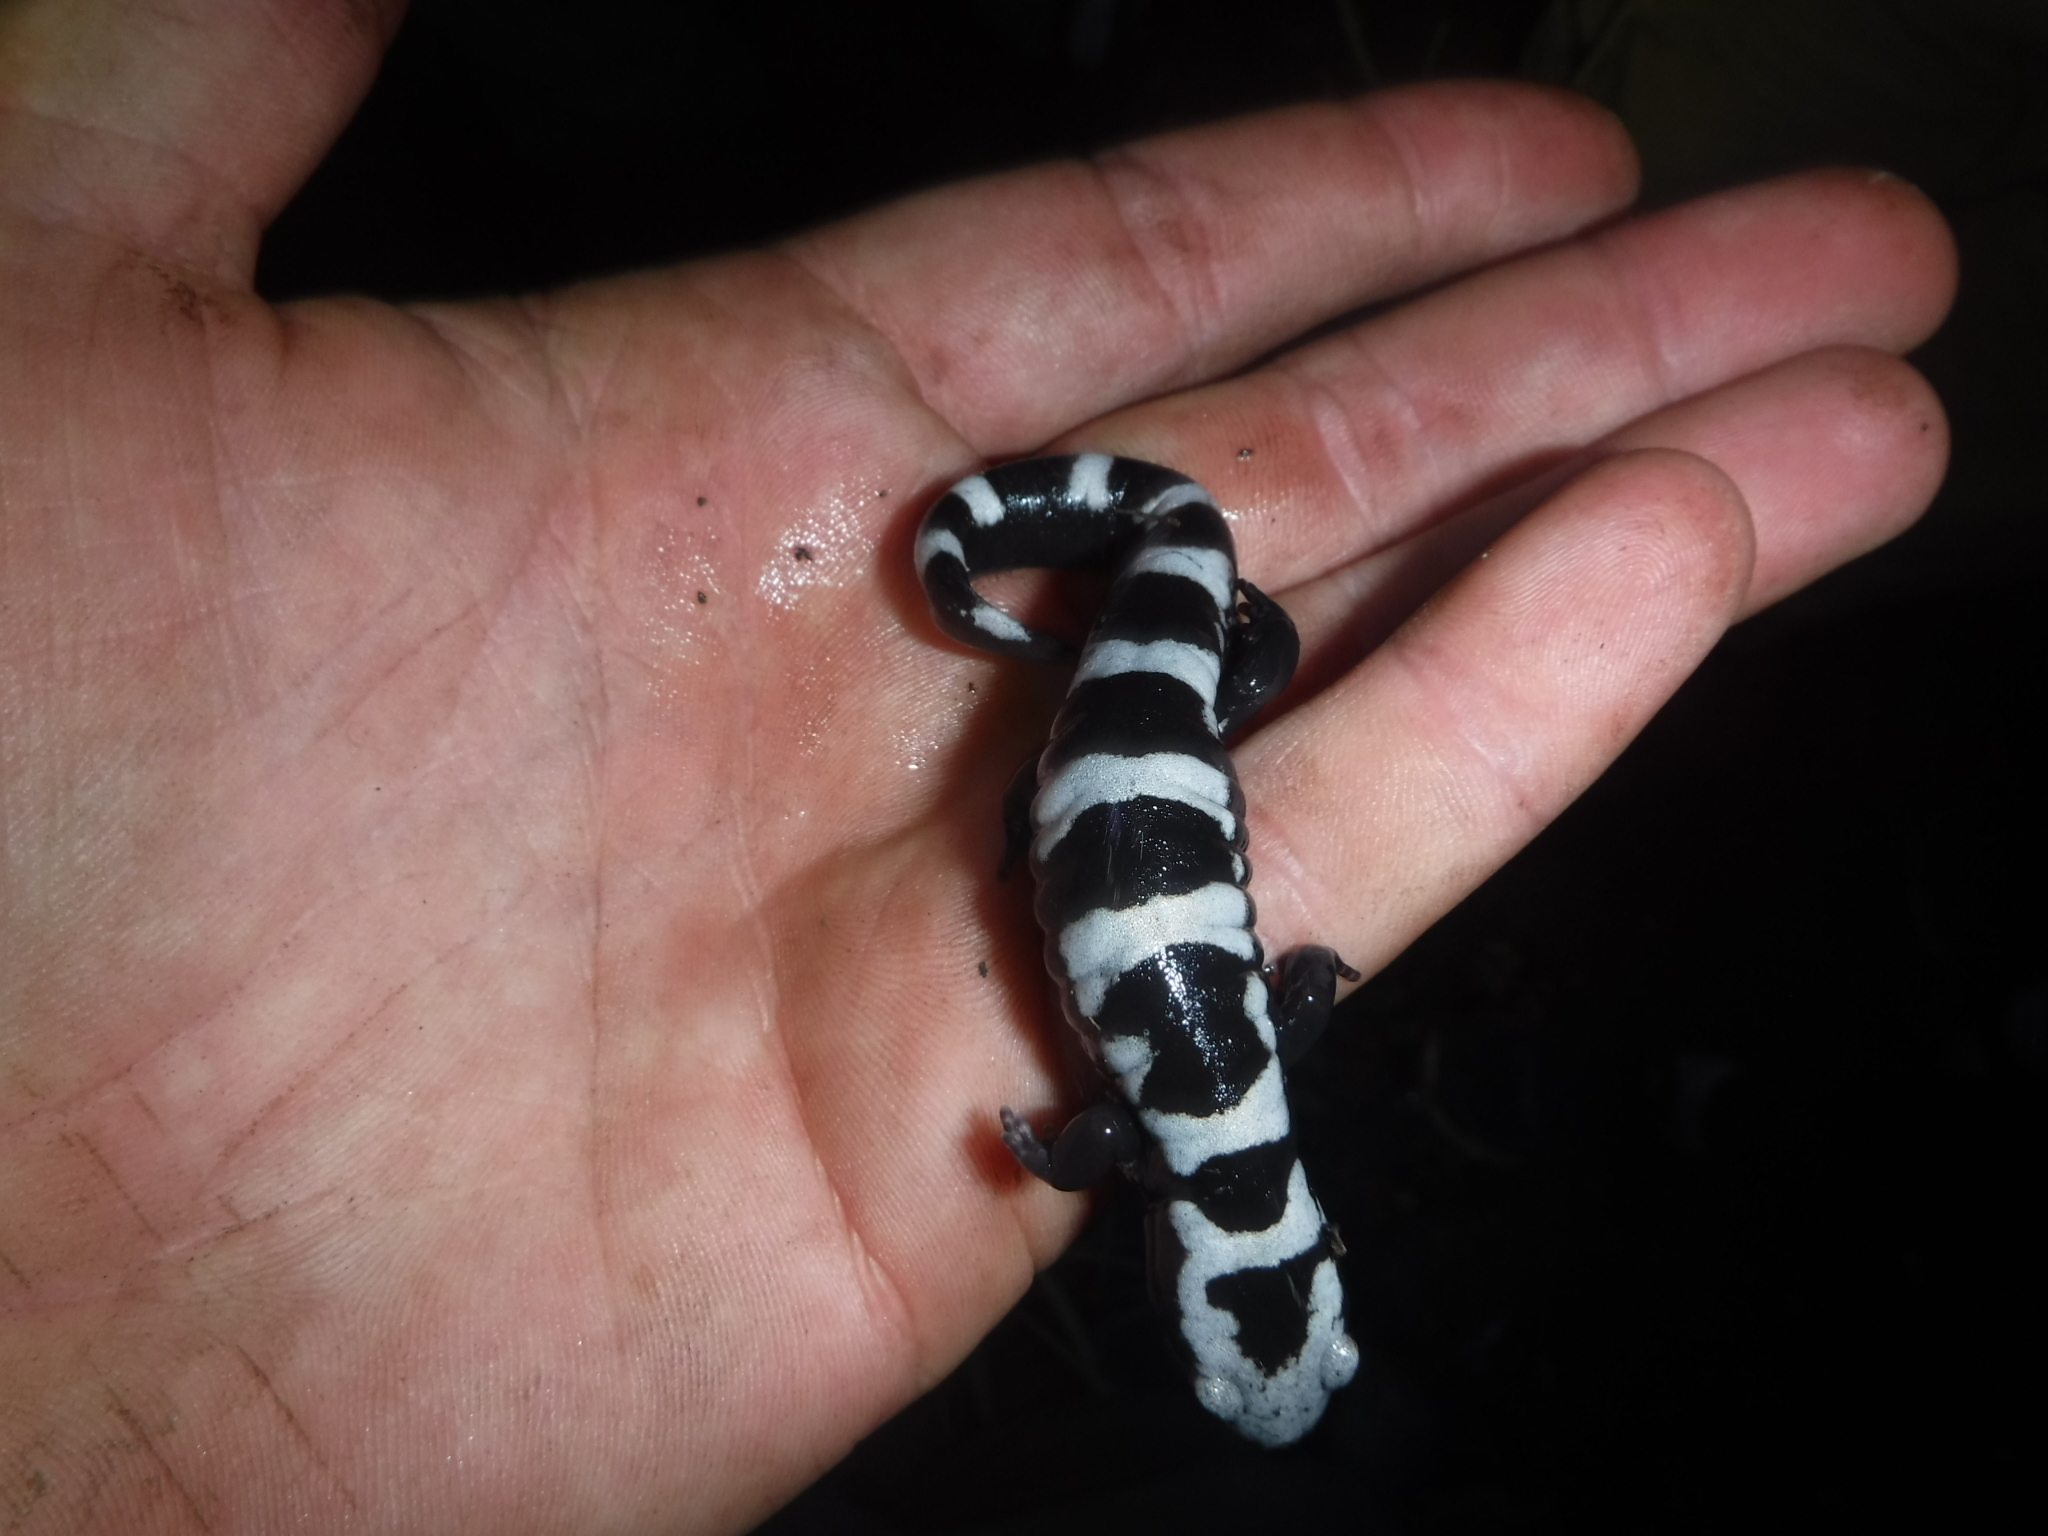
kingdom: Animalia
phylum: Chordata
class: Amphibia
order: Caudata
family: Ambystomatidae
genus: Ambystoma
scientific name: Ambystoma opacum
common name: Marbled salamander
